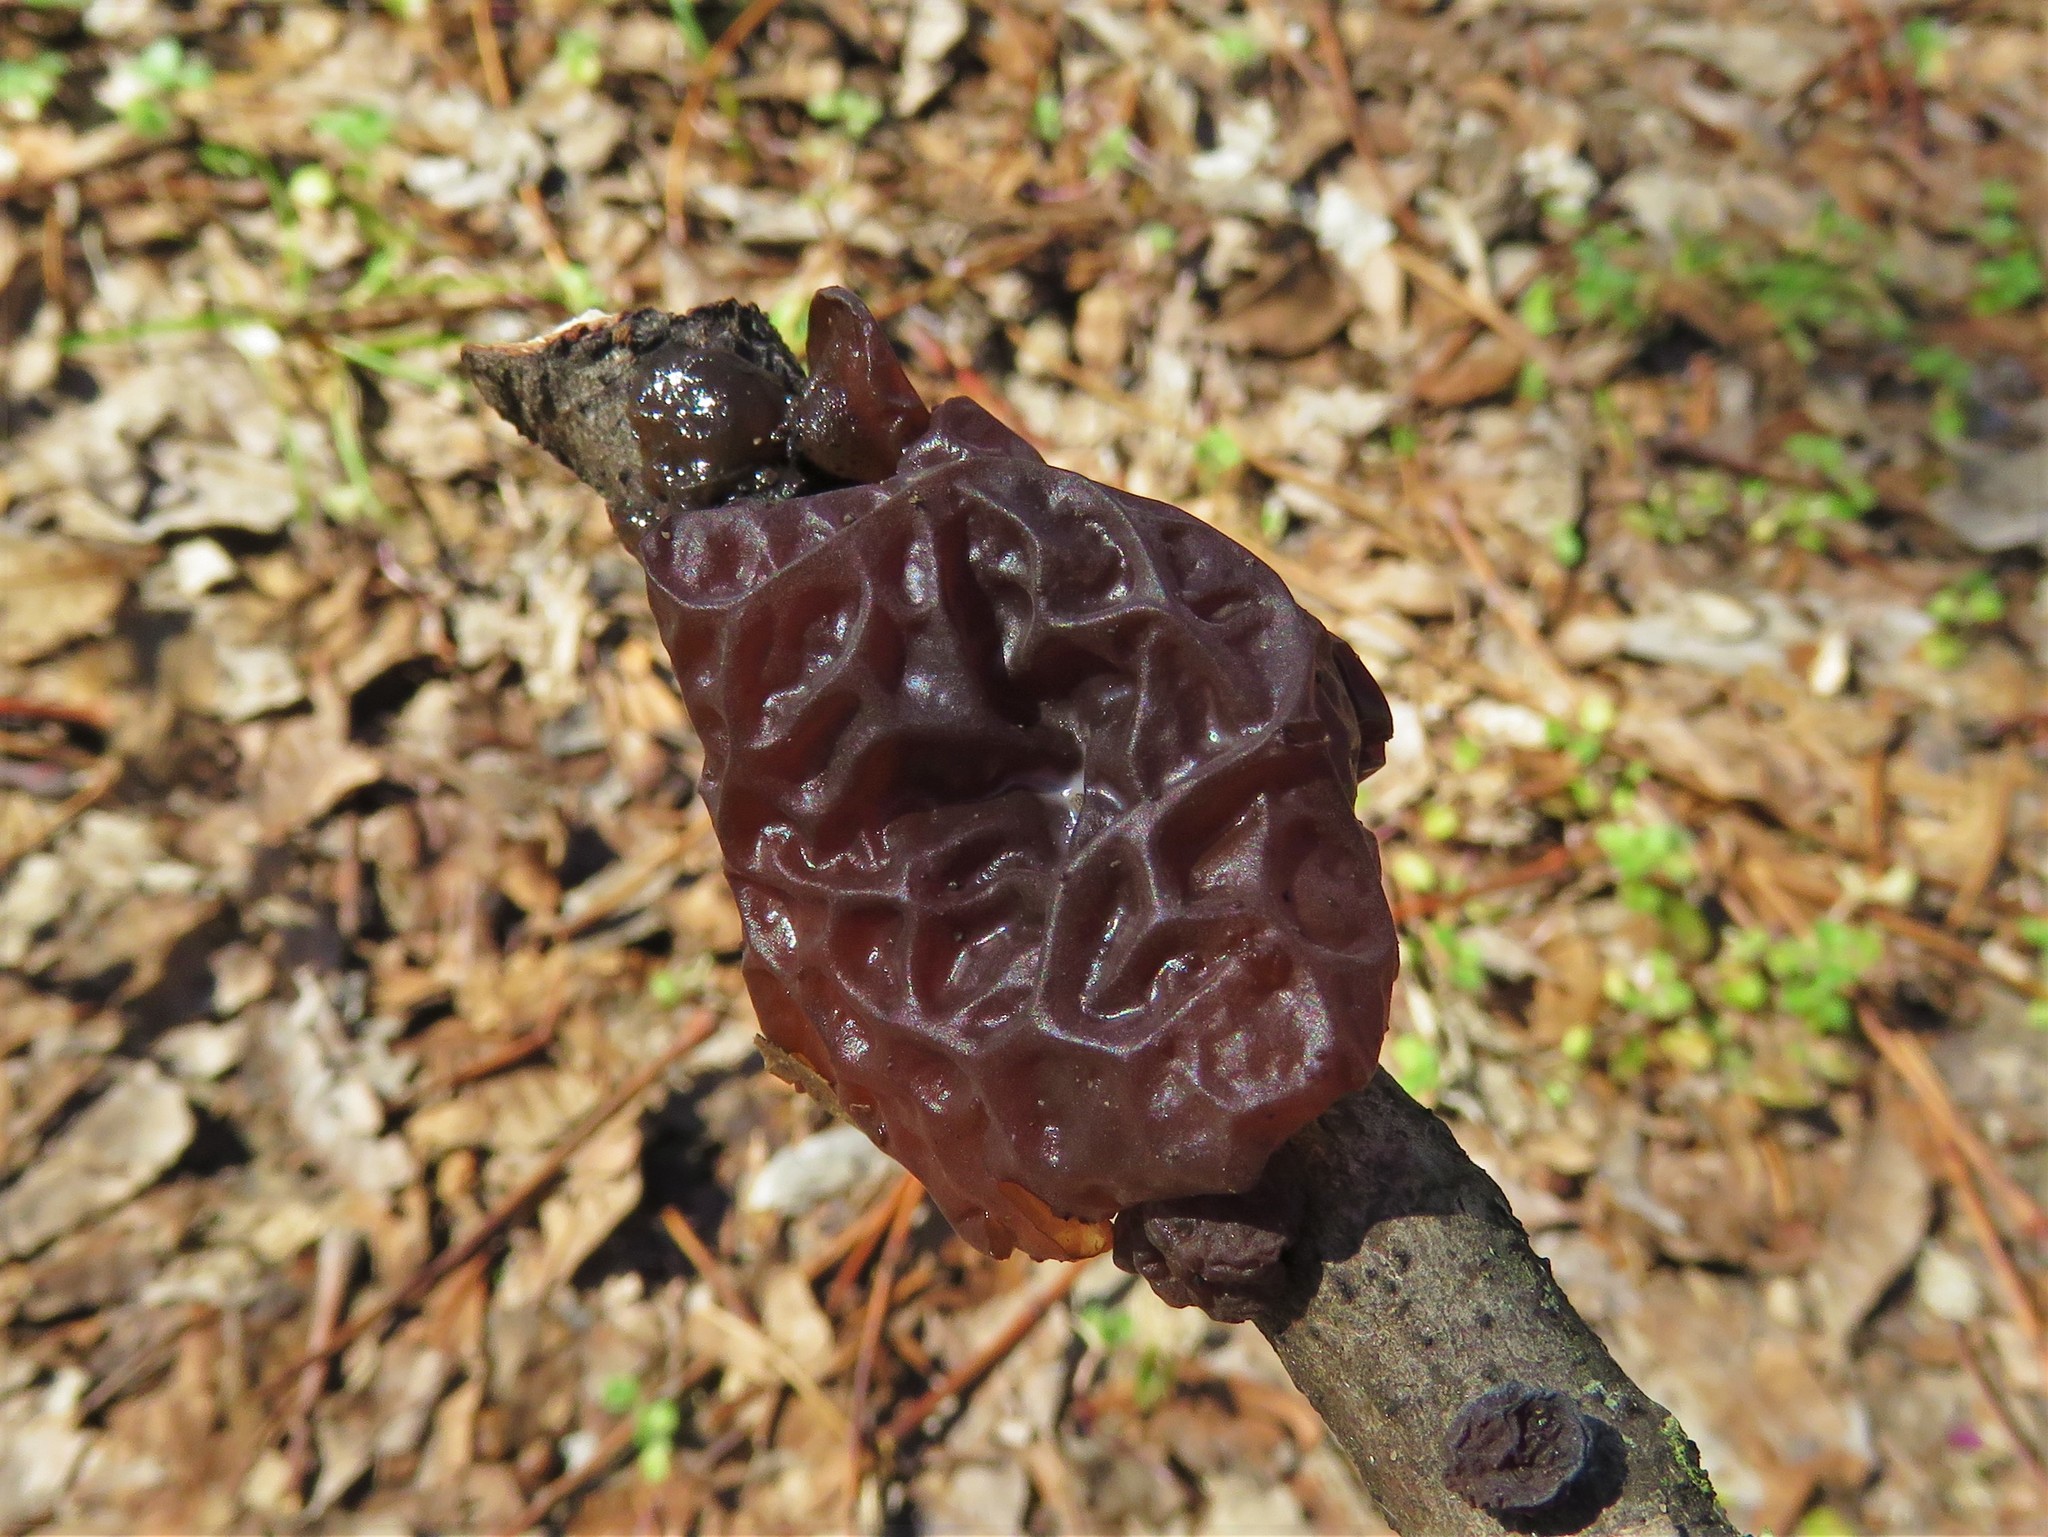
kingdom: Fungi
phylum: Basidiomycota
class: Agaricomycetes
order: Auriculariales
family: Auriculariaceae
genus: Exidia
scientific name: Exidia recisa
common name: Amber jelly
